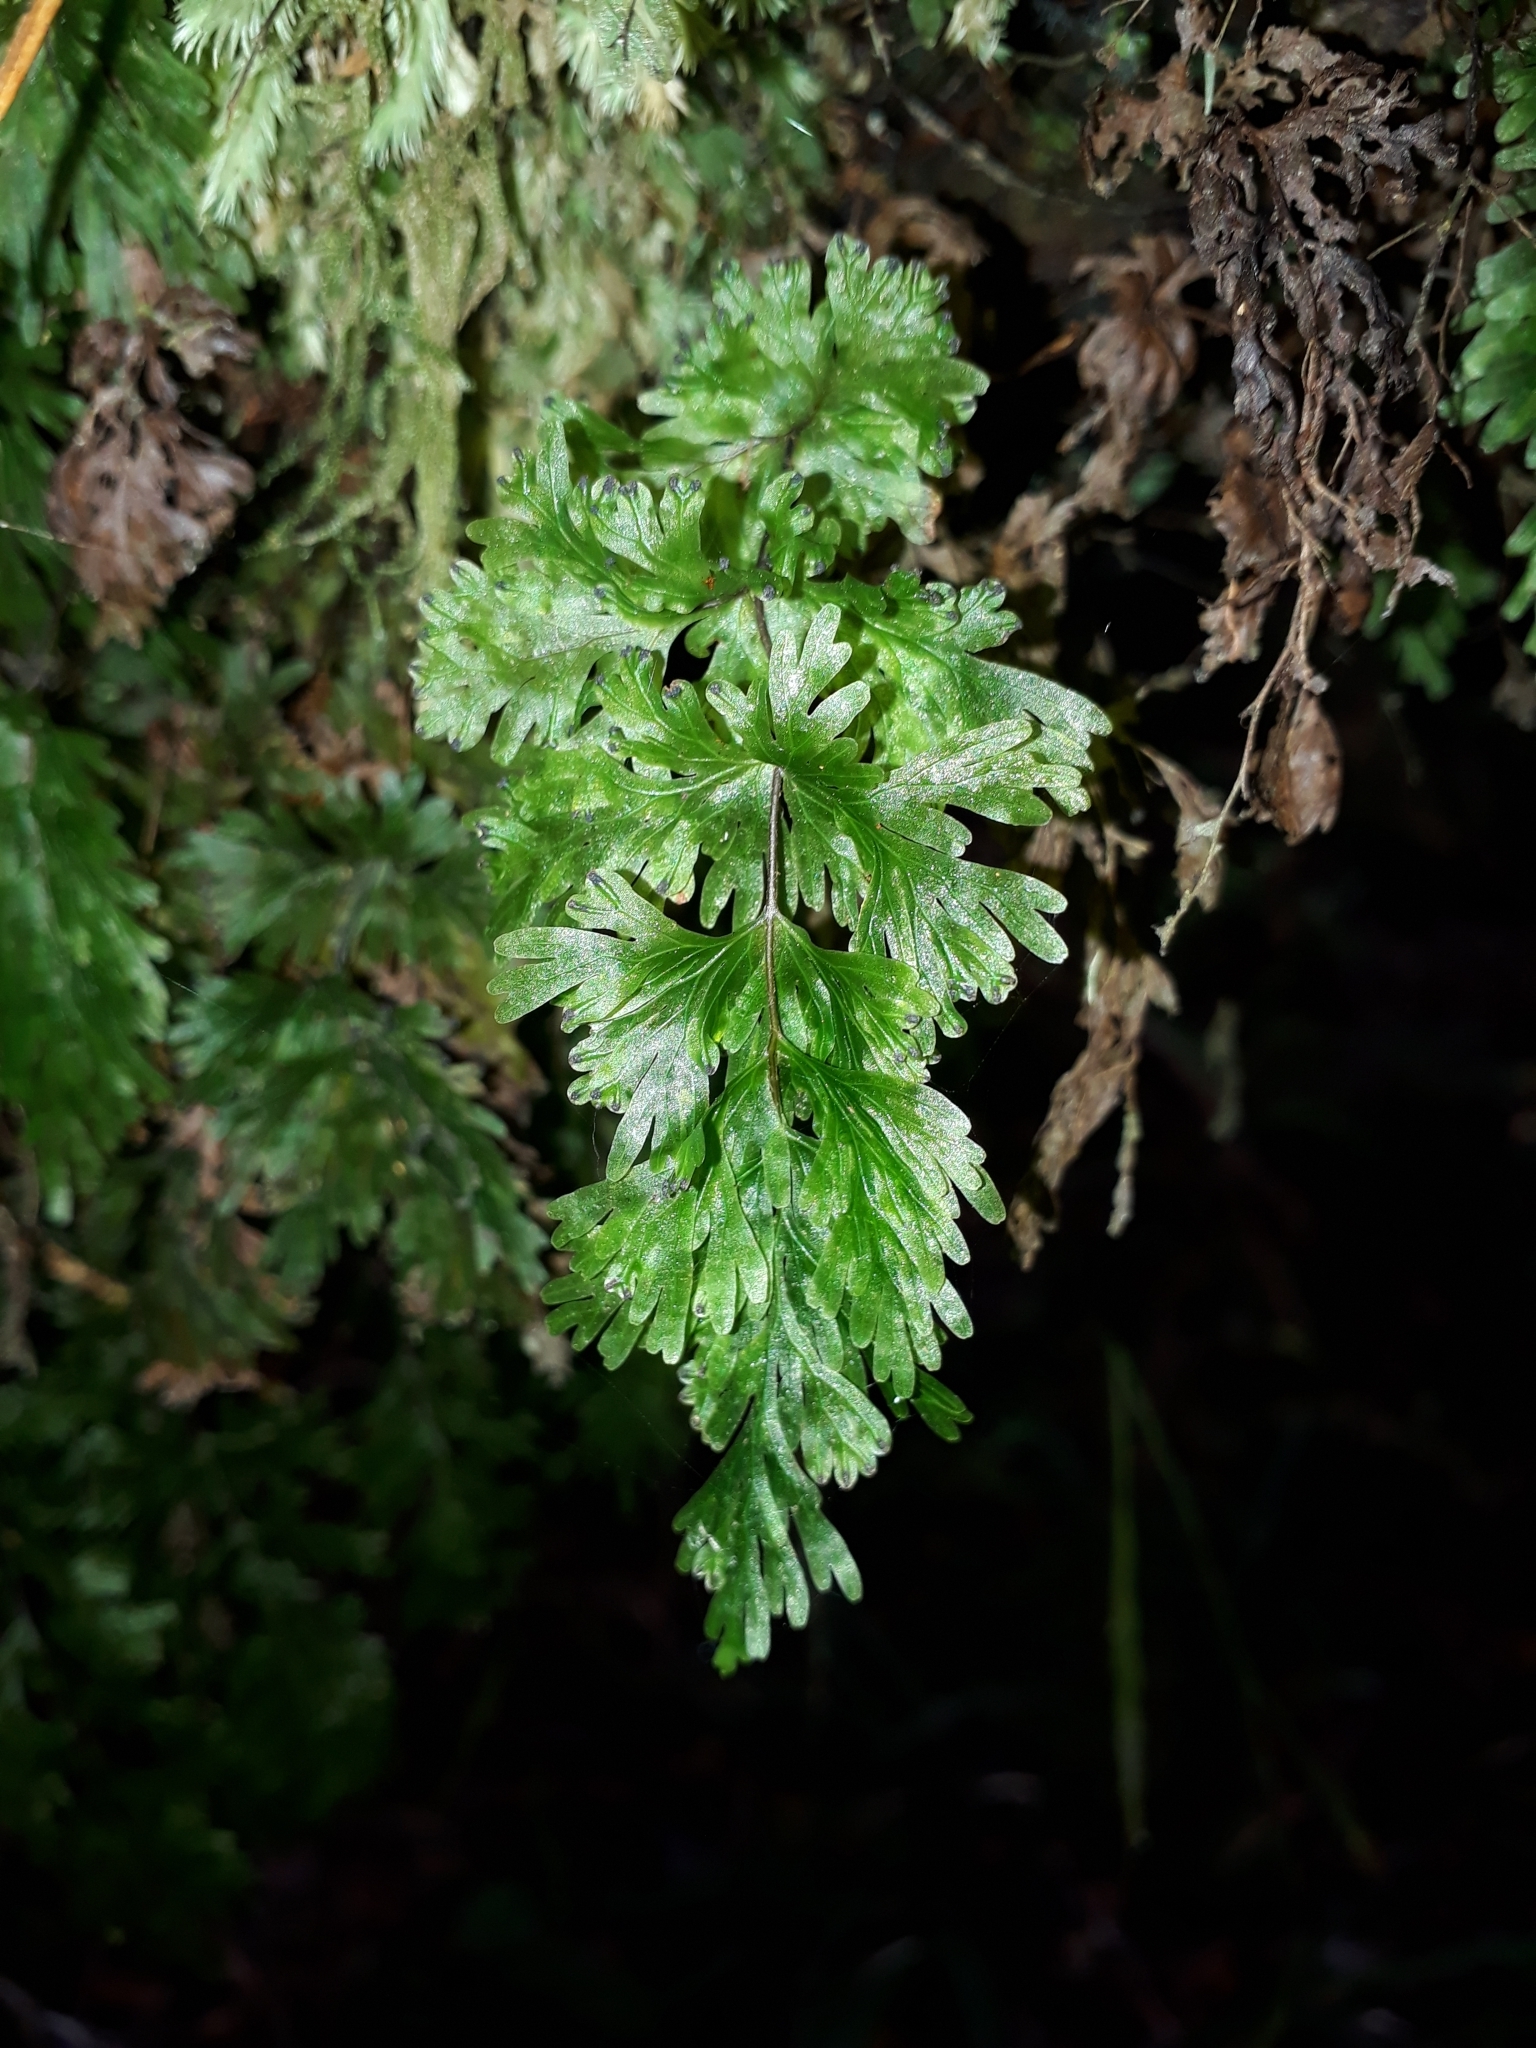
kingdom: Plantae
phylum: Tracheophyta
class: Polypodiopsida
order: Hymenophyllales
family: Hymenophyllaceae
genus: Hymenophyllum
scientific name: Hymenophyllum flabellatum
